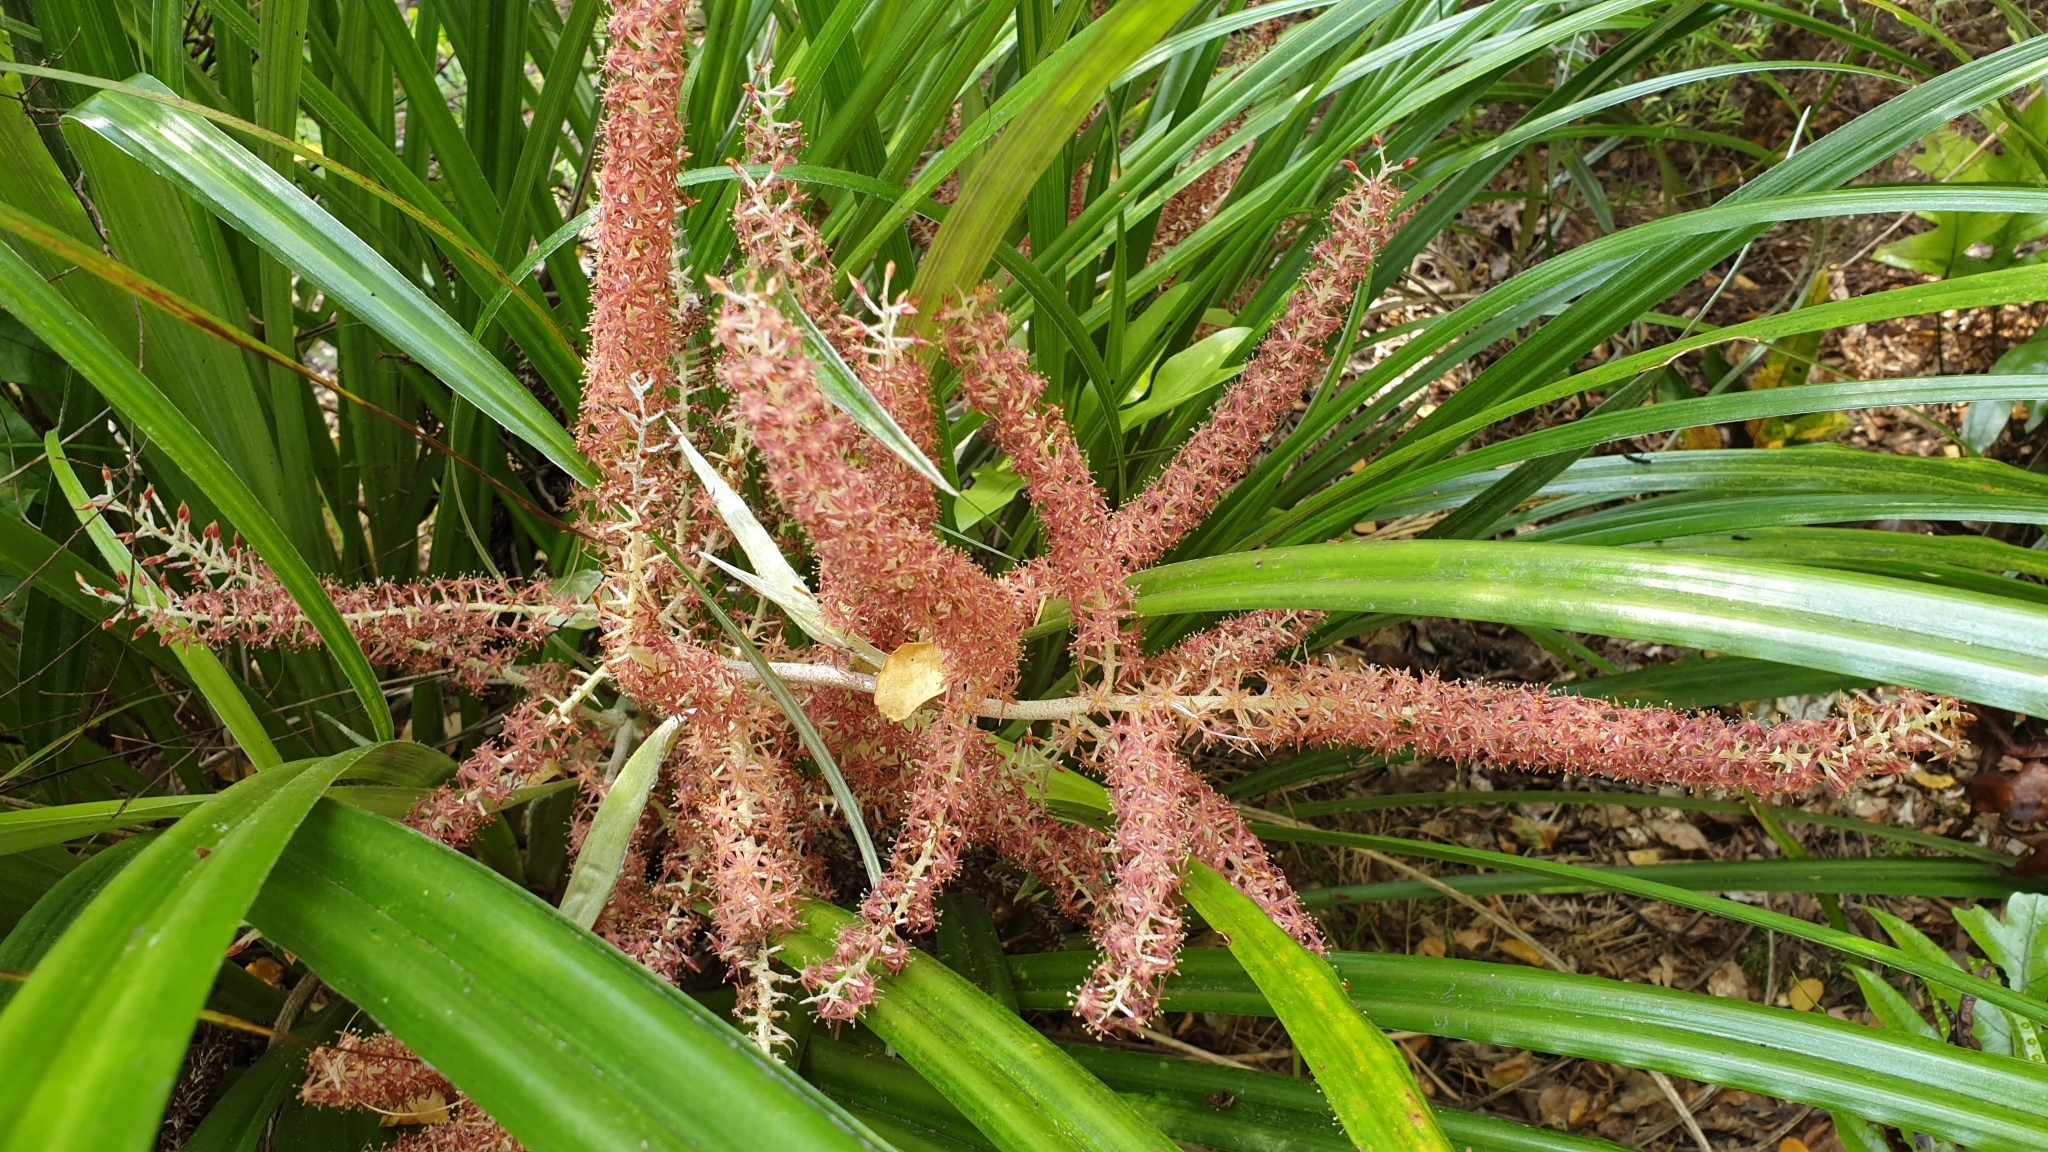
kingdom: Plantae
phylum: Tracheophyta
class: Liliopsida
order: Asparagales
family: Asteliaceae
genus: Astelia
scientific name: Astelia solandri
